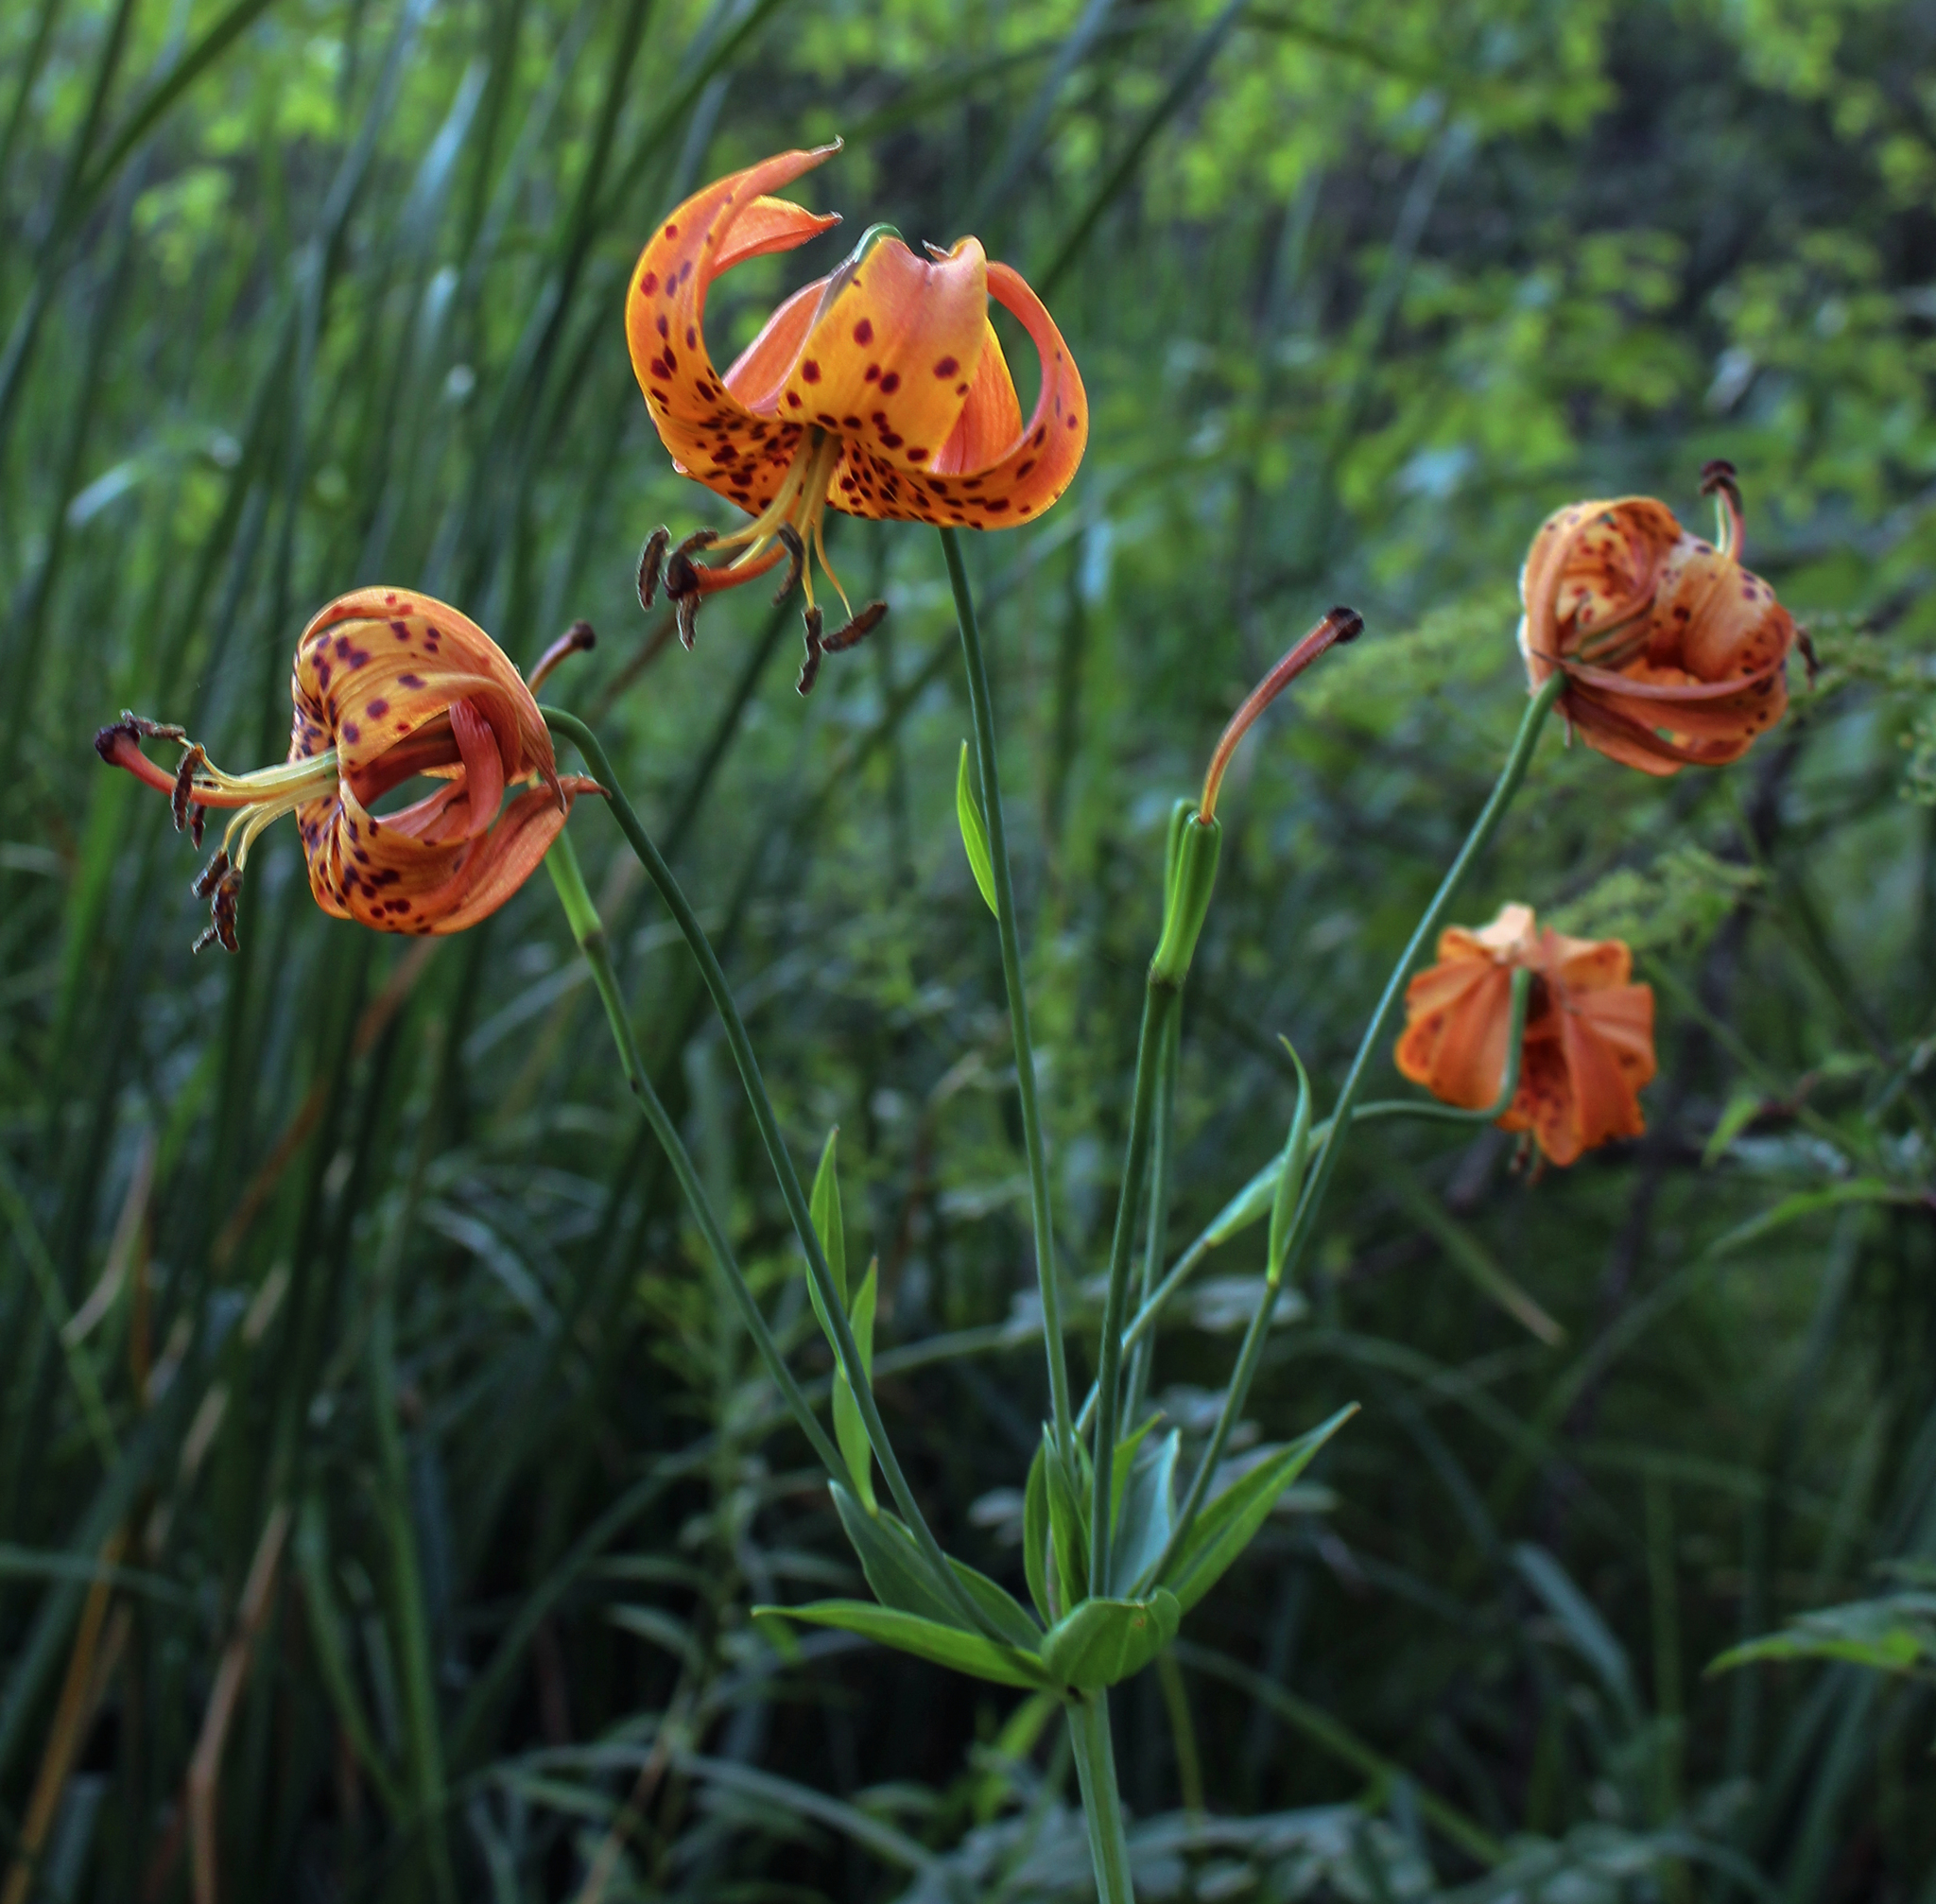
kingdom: Plantae
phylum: Tracheophyta
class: Liliopsida
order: Liliales
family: Liliaceae
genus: Lilium
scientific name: Lilium michiganense
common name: Michigan lily
